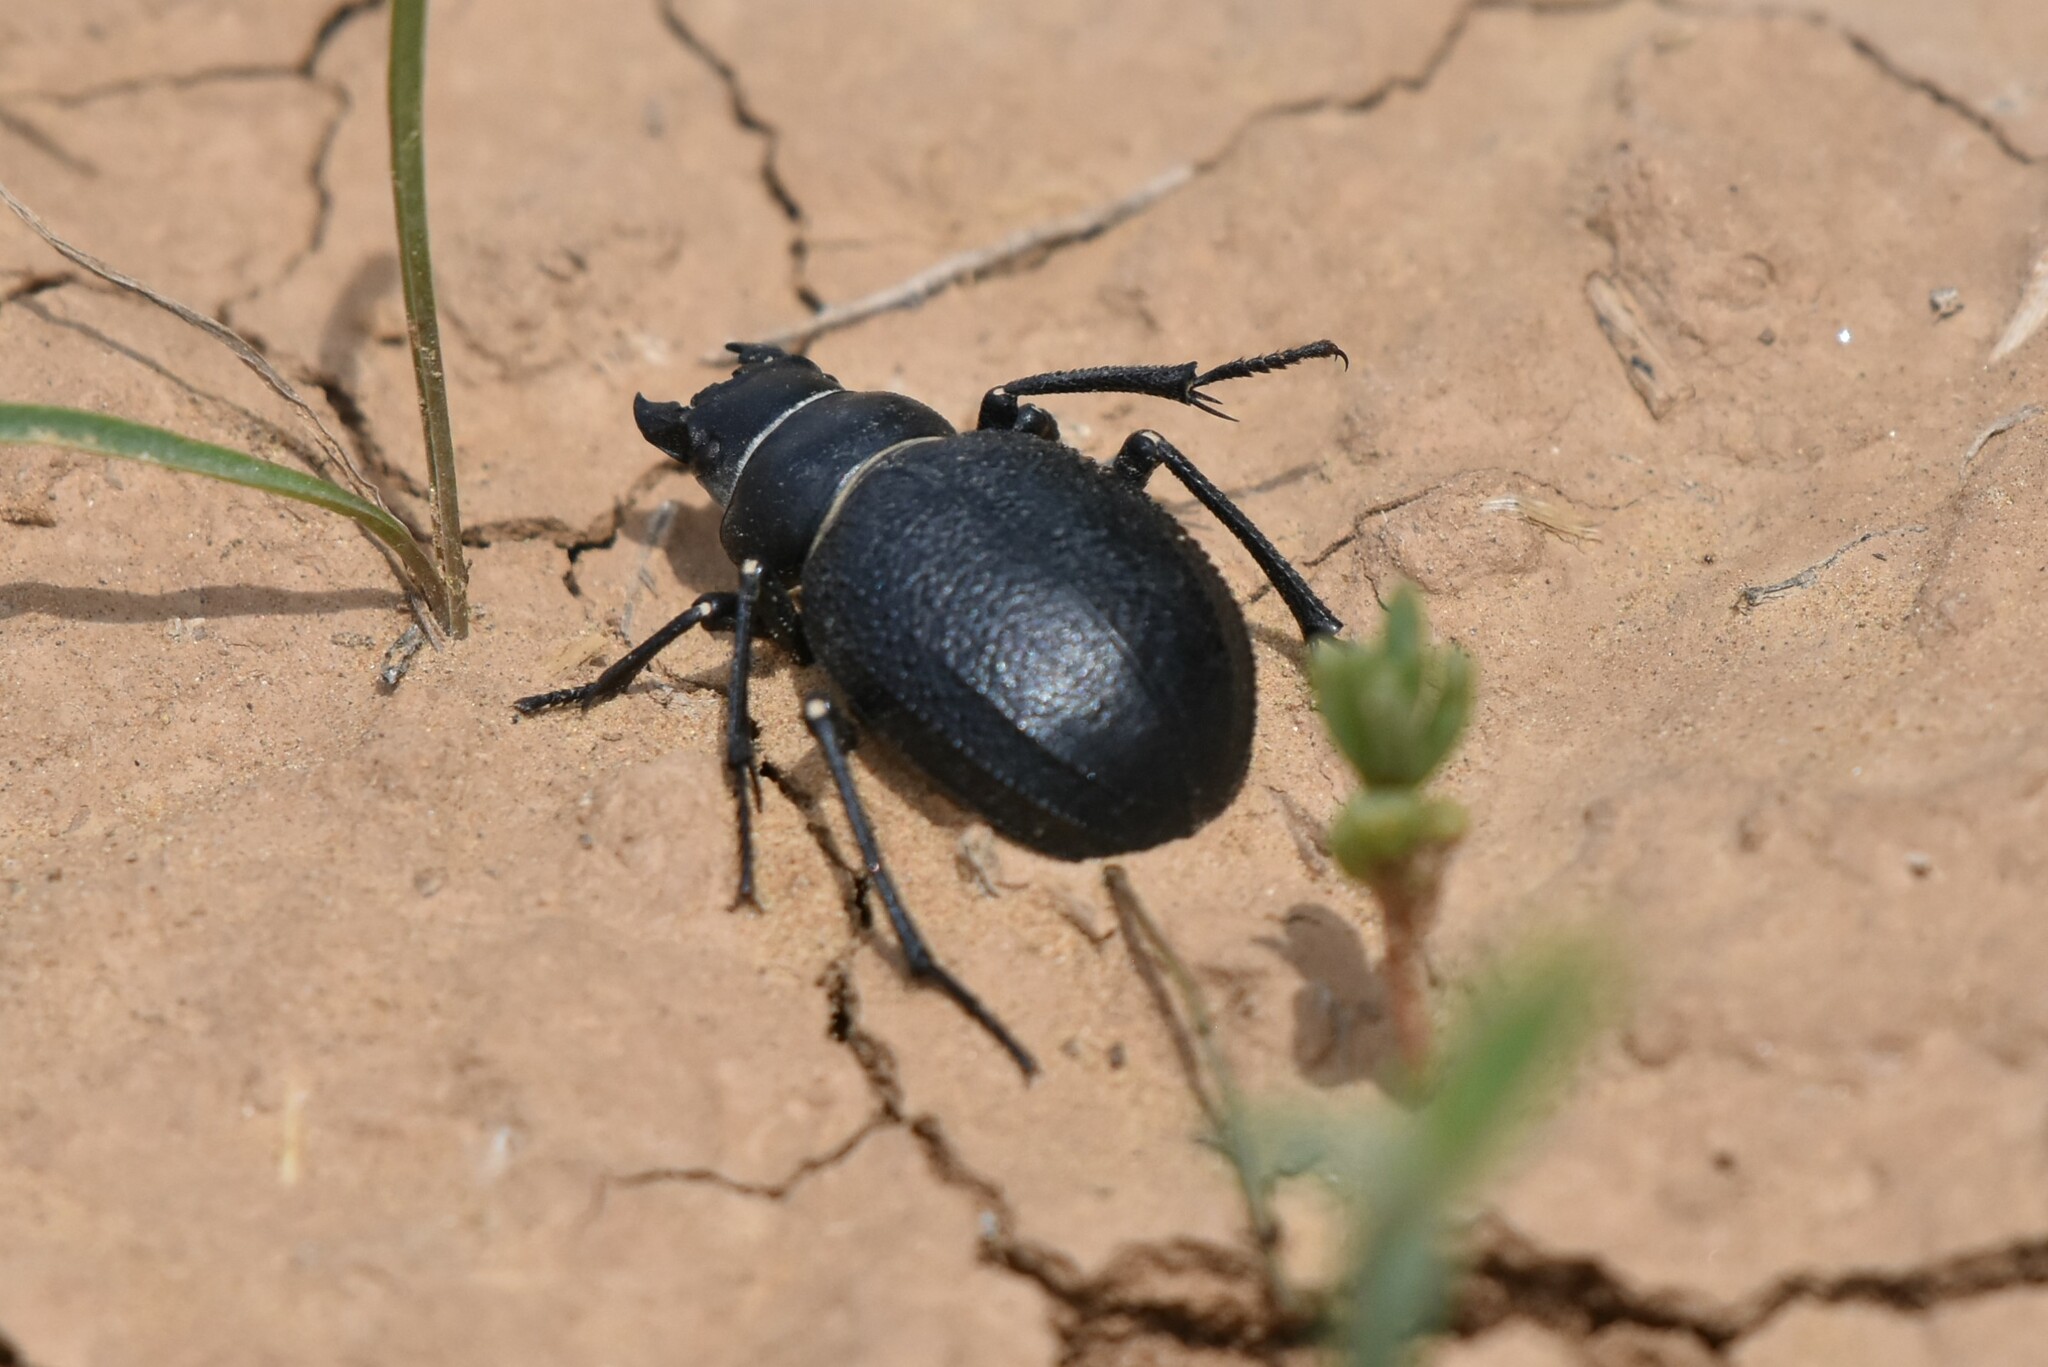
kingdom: Animalia
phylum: Arthropoda
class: Insecta
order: Coleoptera
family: Tenebrionidae
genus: Pimelia
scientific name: Pimelia capito
